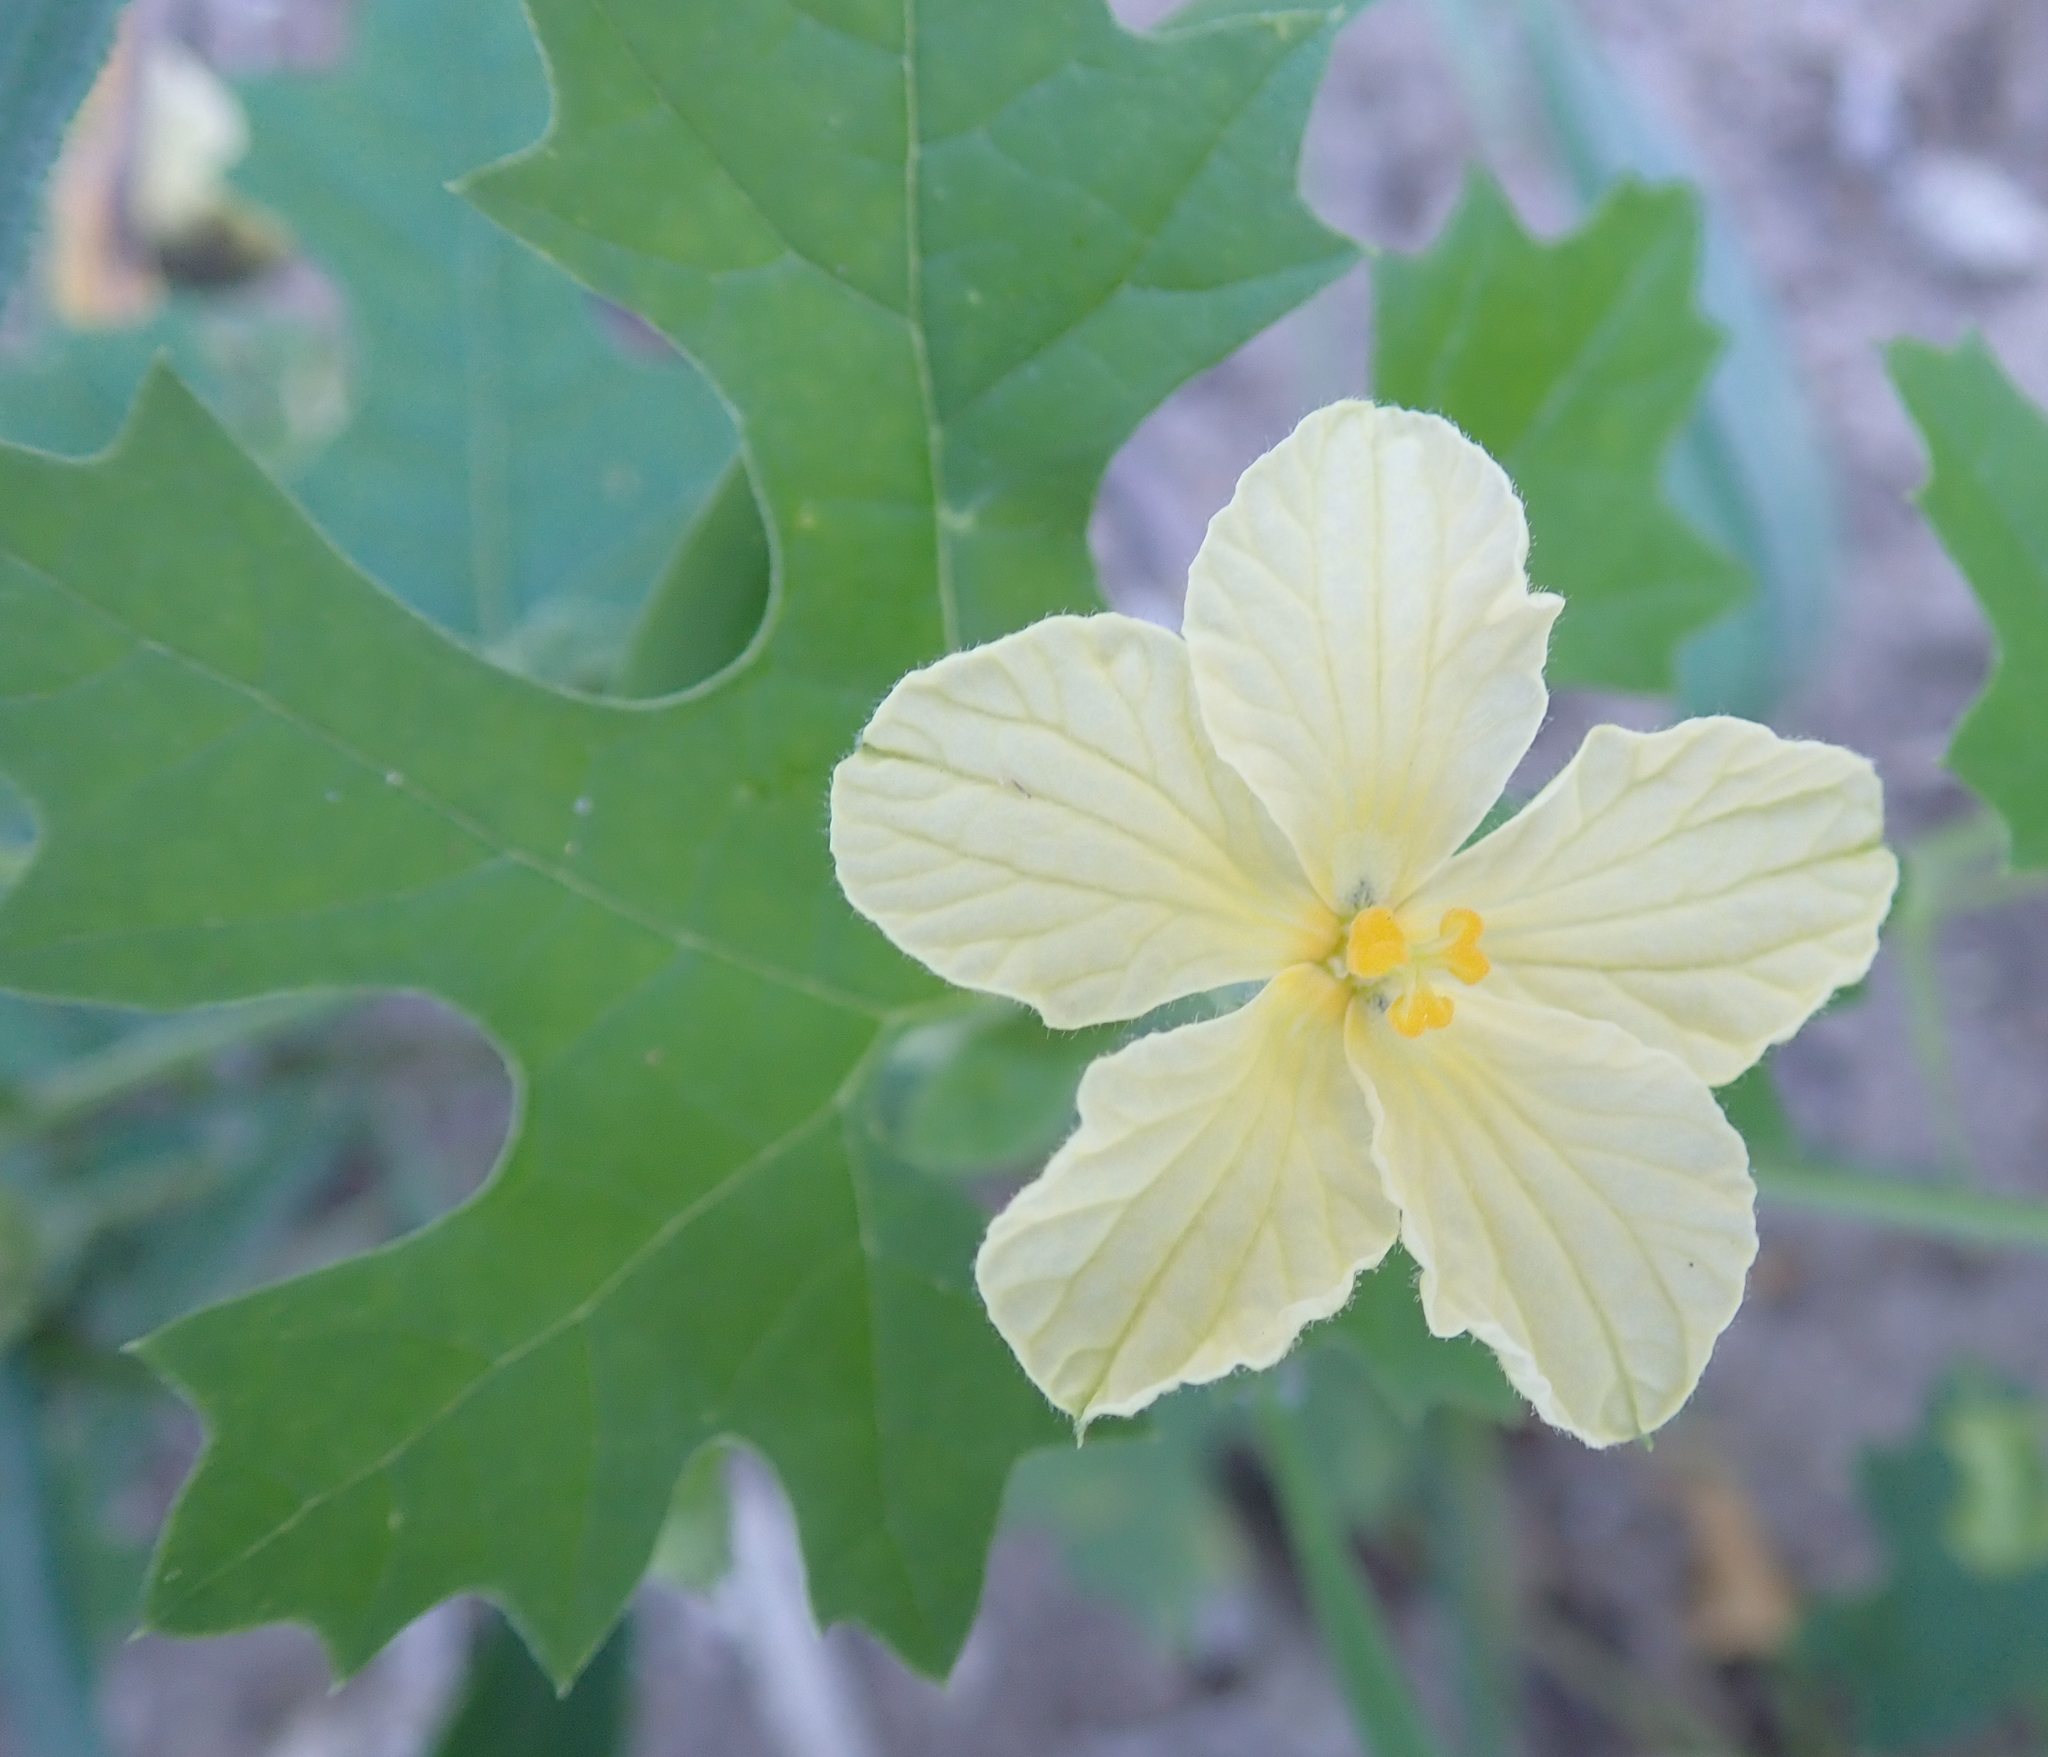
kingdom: Plantae
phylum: Tracheophyta
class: Magnoliopsida
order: Cucurbitales
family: Cucurbitaceae
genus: Momordica
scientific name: Momordica balsamina
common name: Southern balsampear
